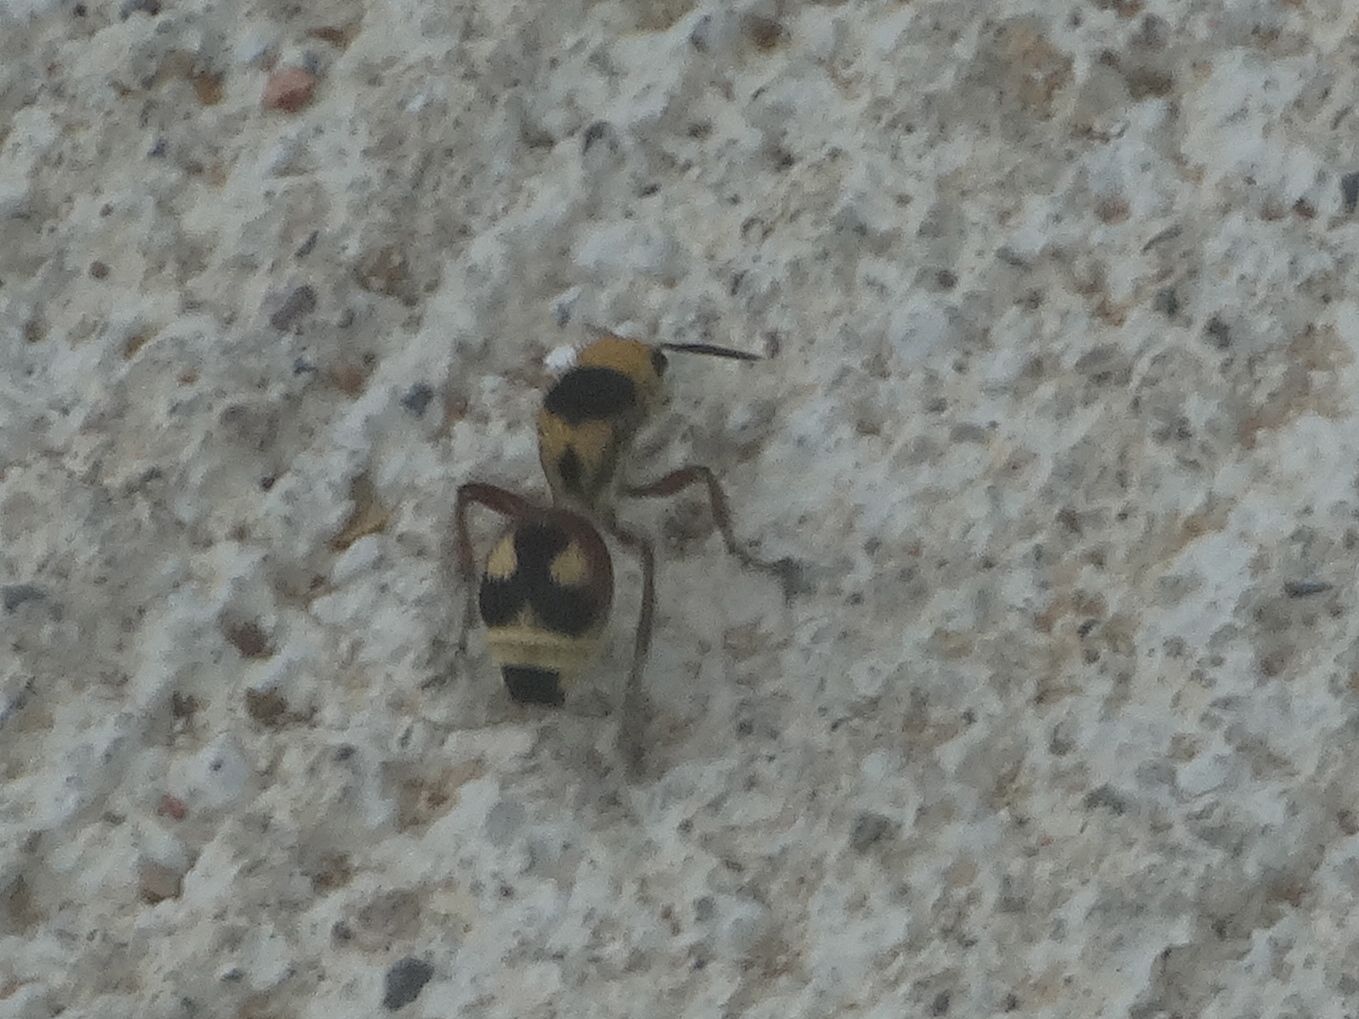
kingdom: Animalia
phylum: Arthropoda
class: Insecta
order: Hymenoptera
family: Mutillidae
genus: Dasymutilla
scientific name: Dasymutilla
